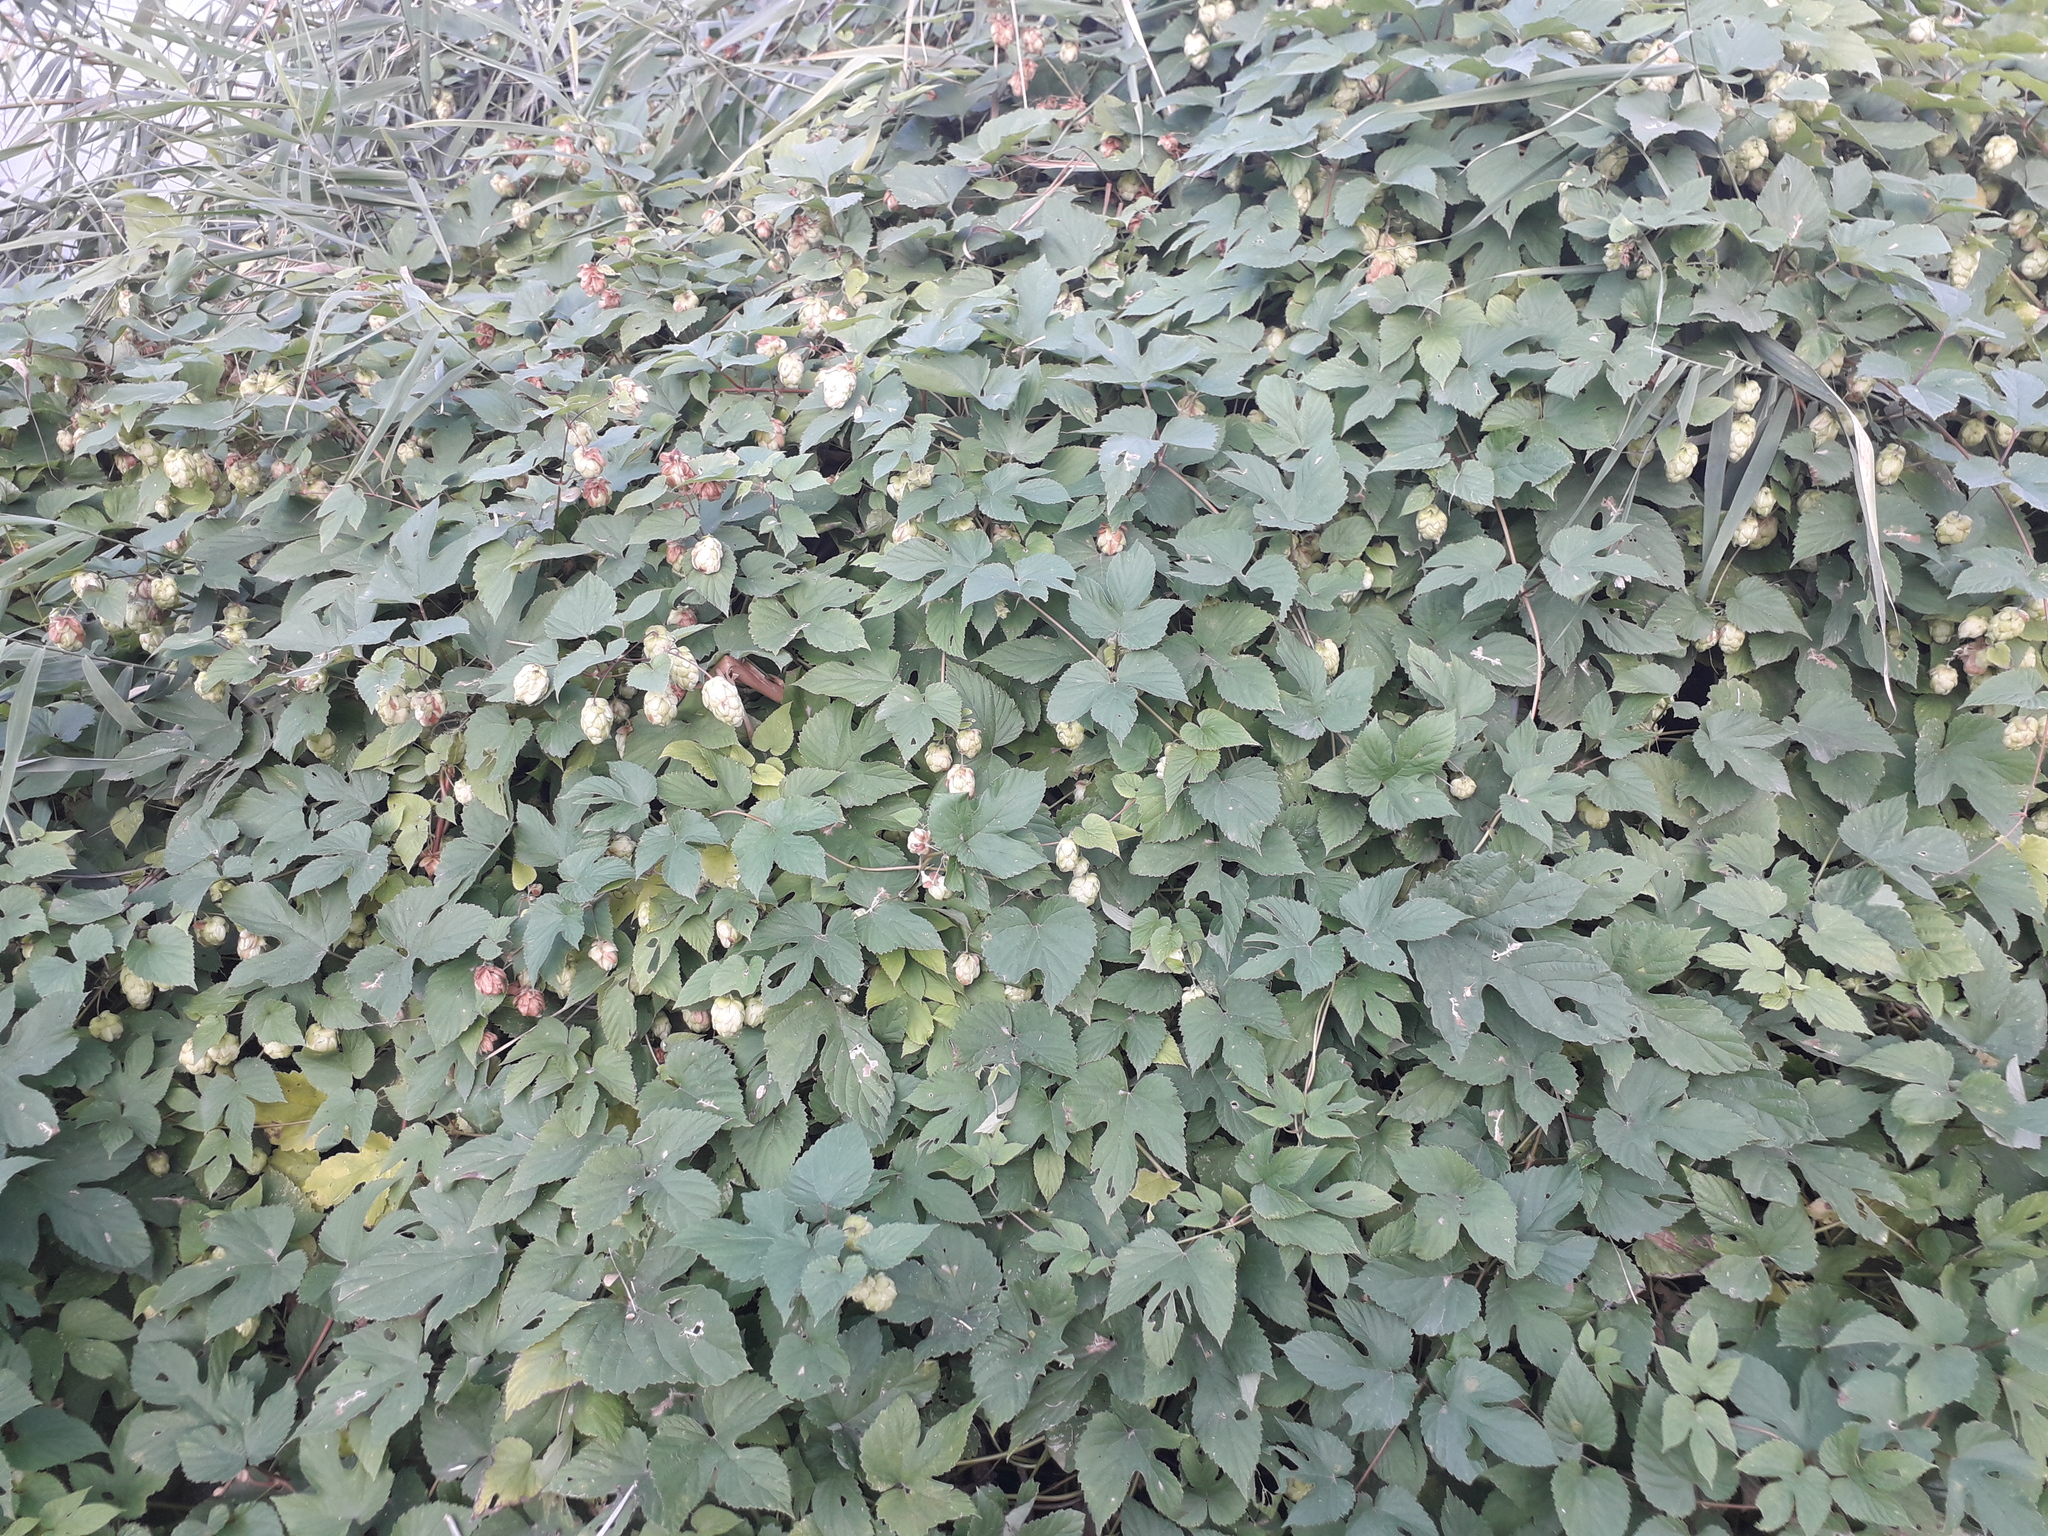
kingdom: Plantae
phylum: Tracheophyta
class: Magnoliopsida
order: Rosales
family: Cannabaceae
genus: Humulus
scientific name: Humulus lupulus
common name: Hop
